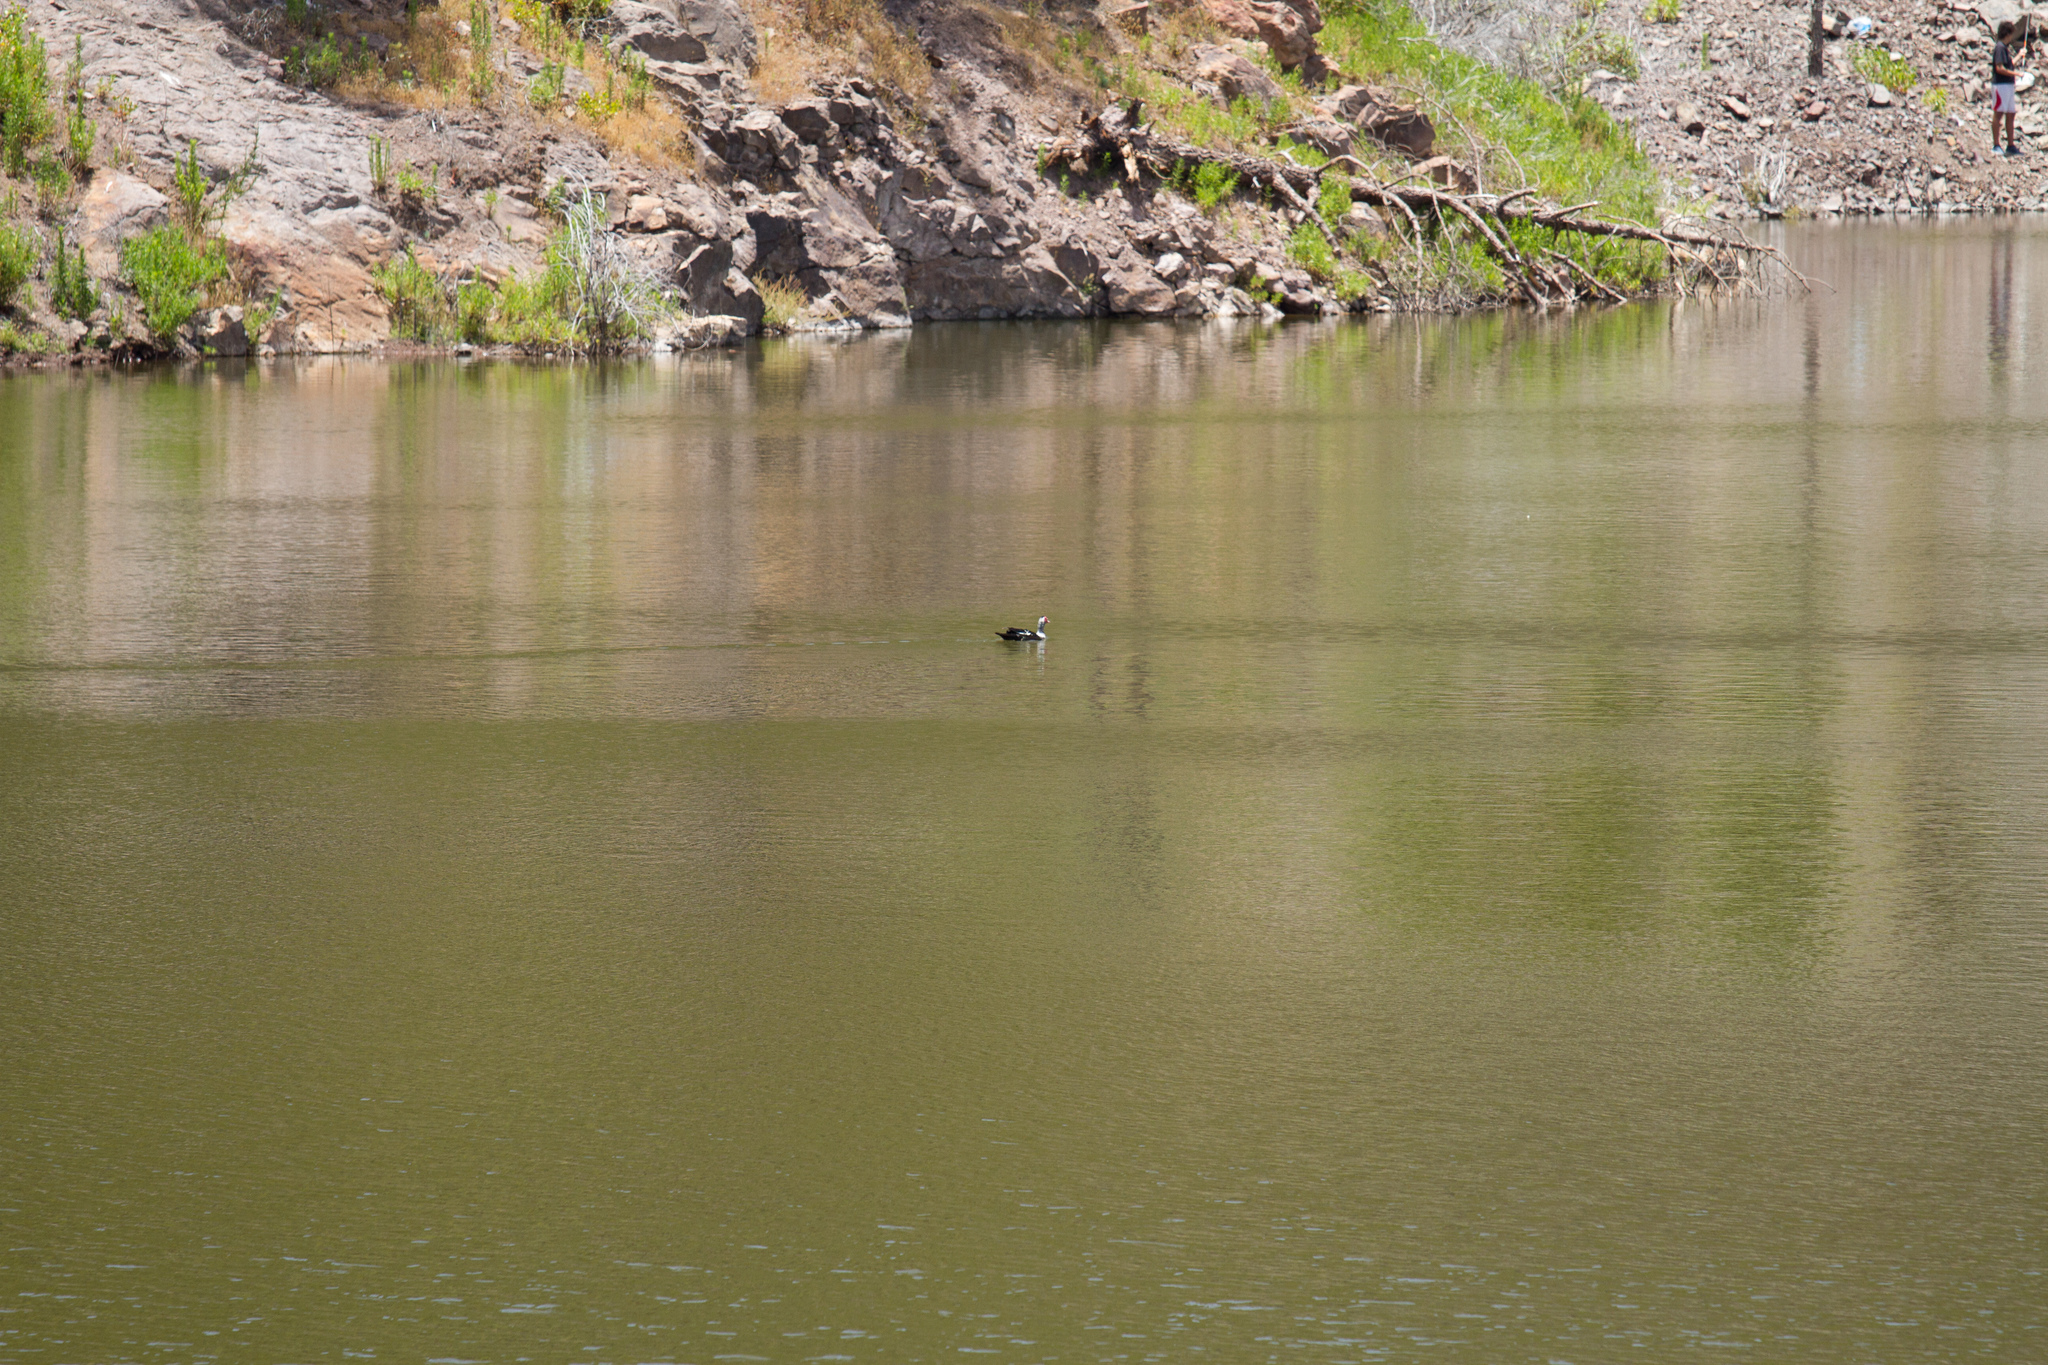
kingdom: Animalia
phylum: Chordata
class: Aves
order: Anseriformes
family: Anatidae
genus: Cairina
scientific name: Cairina moschata
